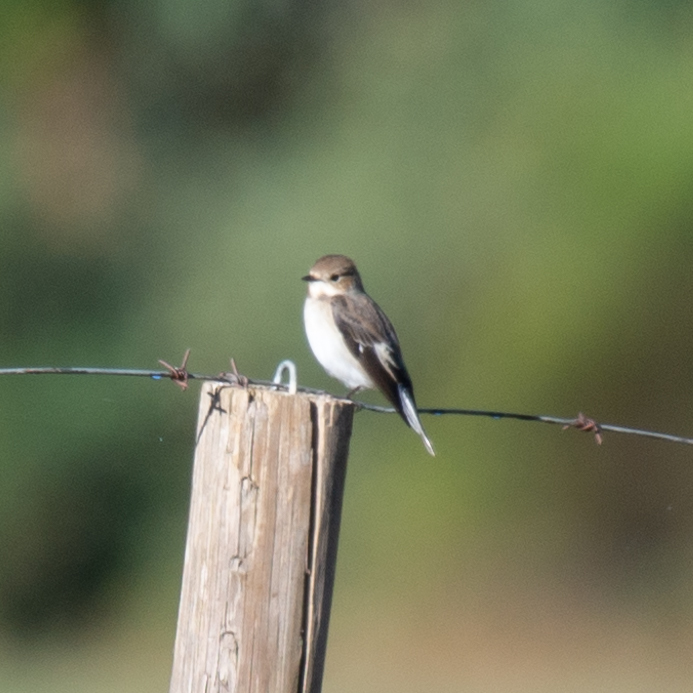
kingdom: Animalia
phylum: Chordata
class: Aves
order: Passeriformes
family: Muscicapidae
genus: Ficedula
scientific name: Ficedula hypoleuca
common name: European pied flycatcher
